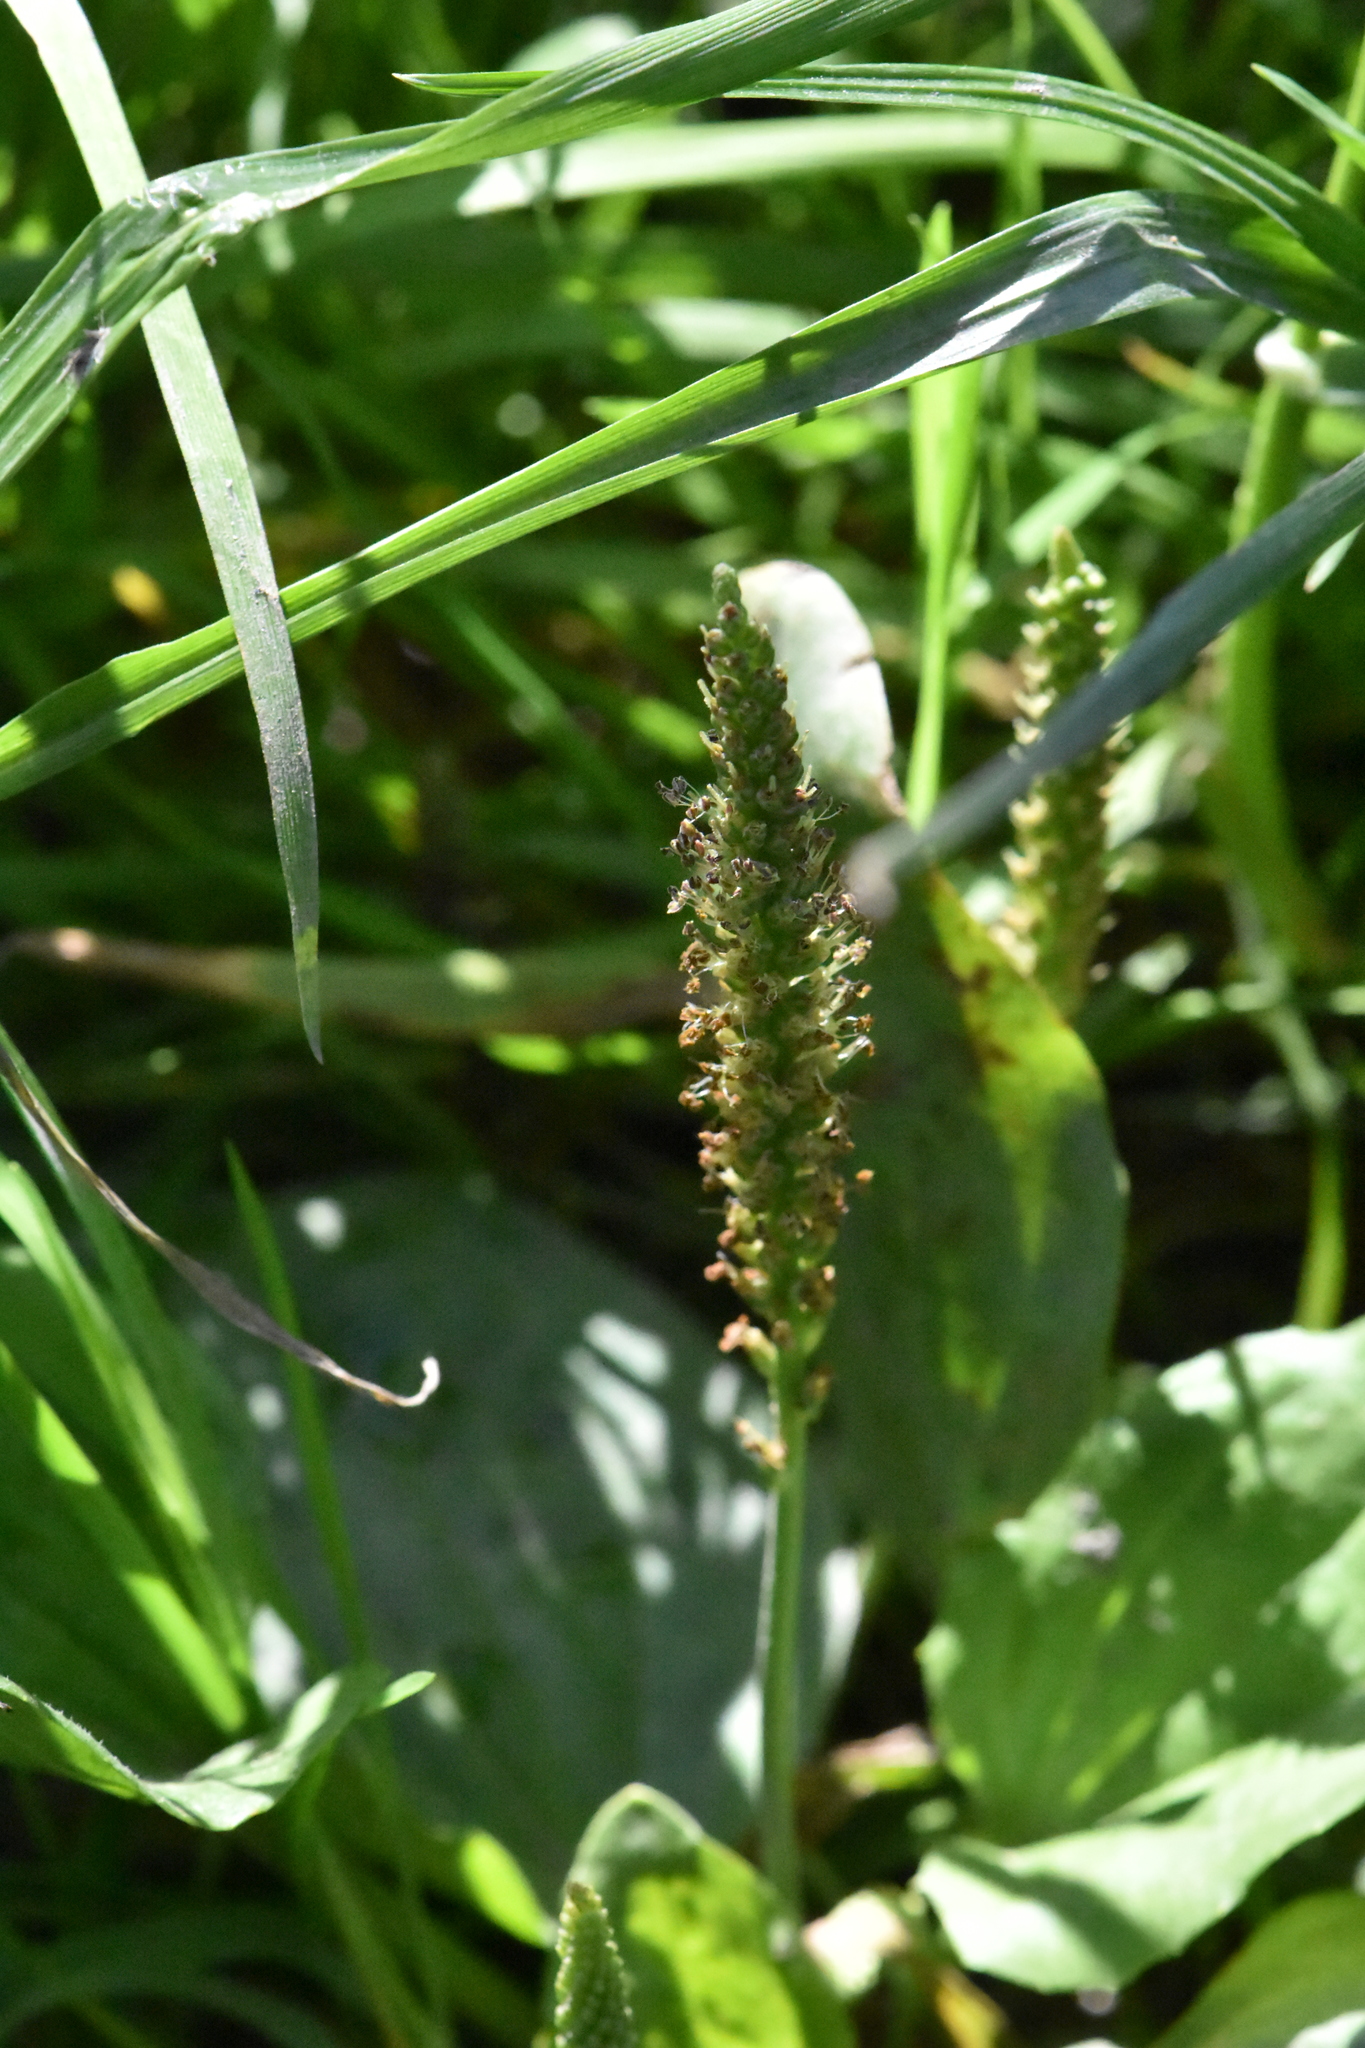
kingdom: Plantae
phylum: Tracheophyta
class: Magnoliopsida
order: Lamiales
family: Plantaginaceae
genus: Plantago
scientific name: Plantago major
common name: Common plantain
